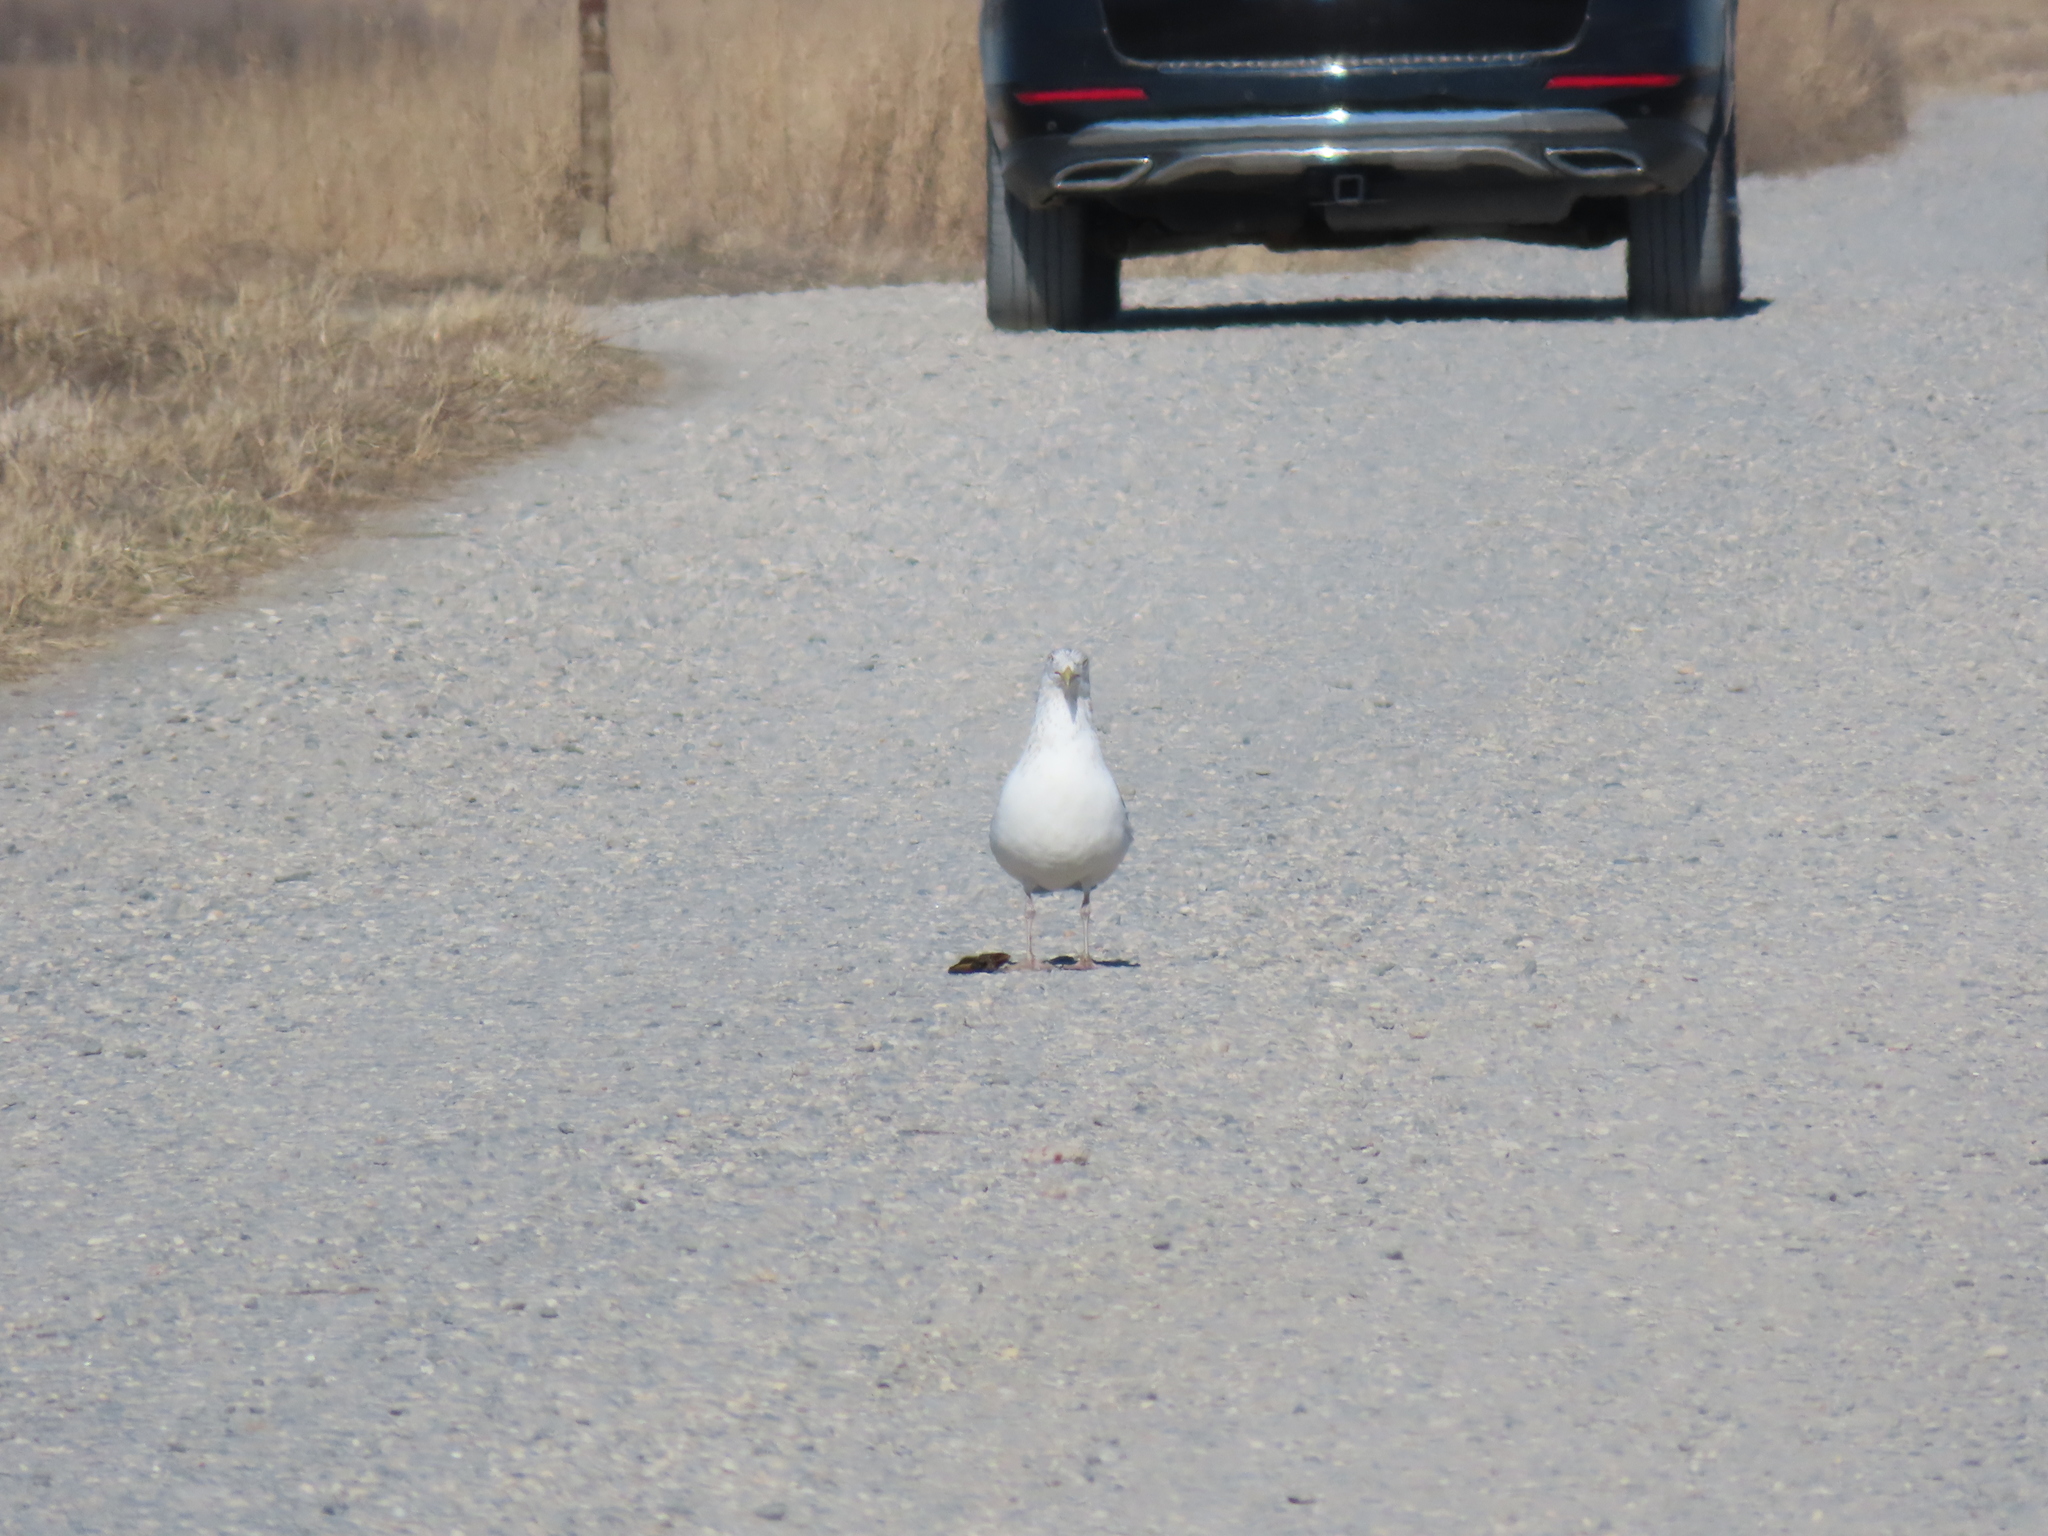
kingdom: Animalia
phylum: Chordata
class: Aves
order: Charadriiformes
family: Laridae
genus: Larus
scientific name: Larus argentatus
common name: Herring gull
